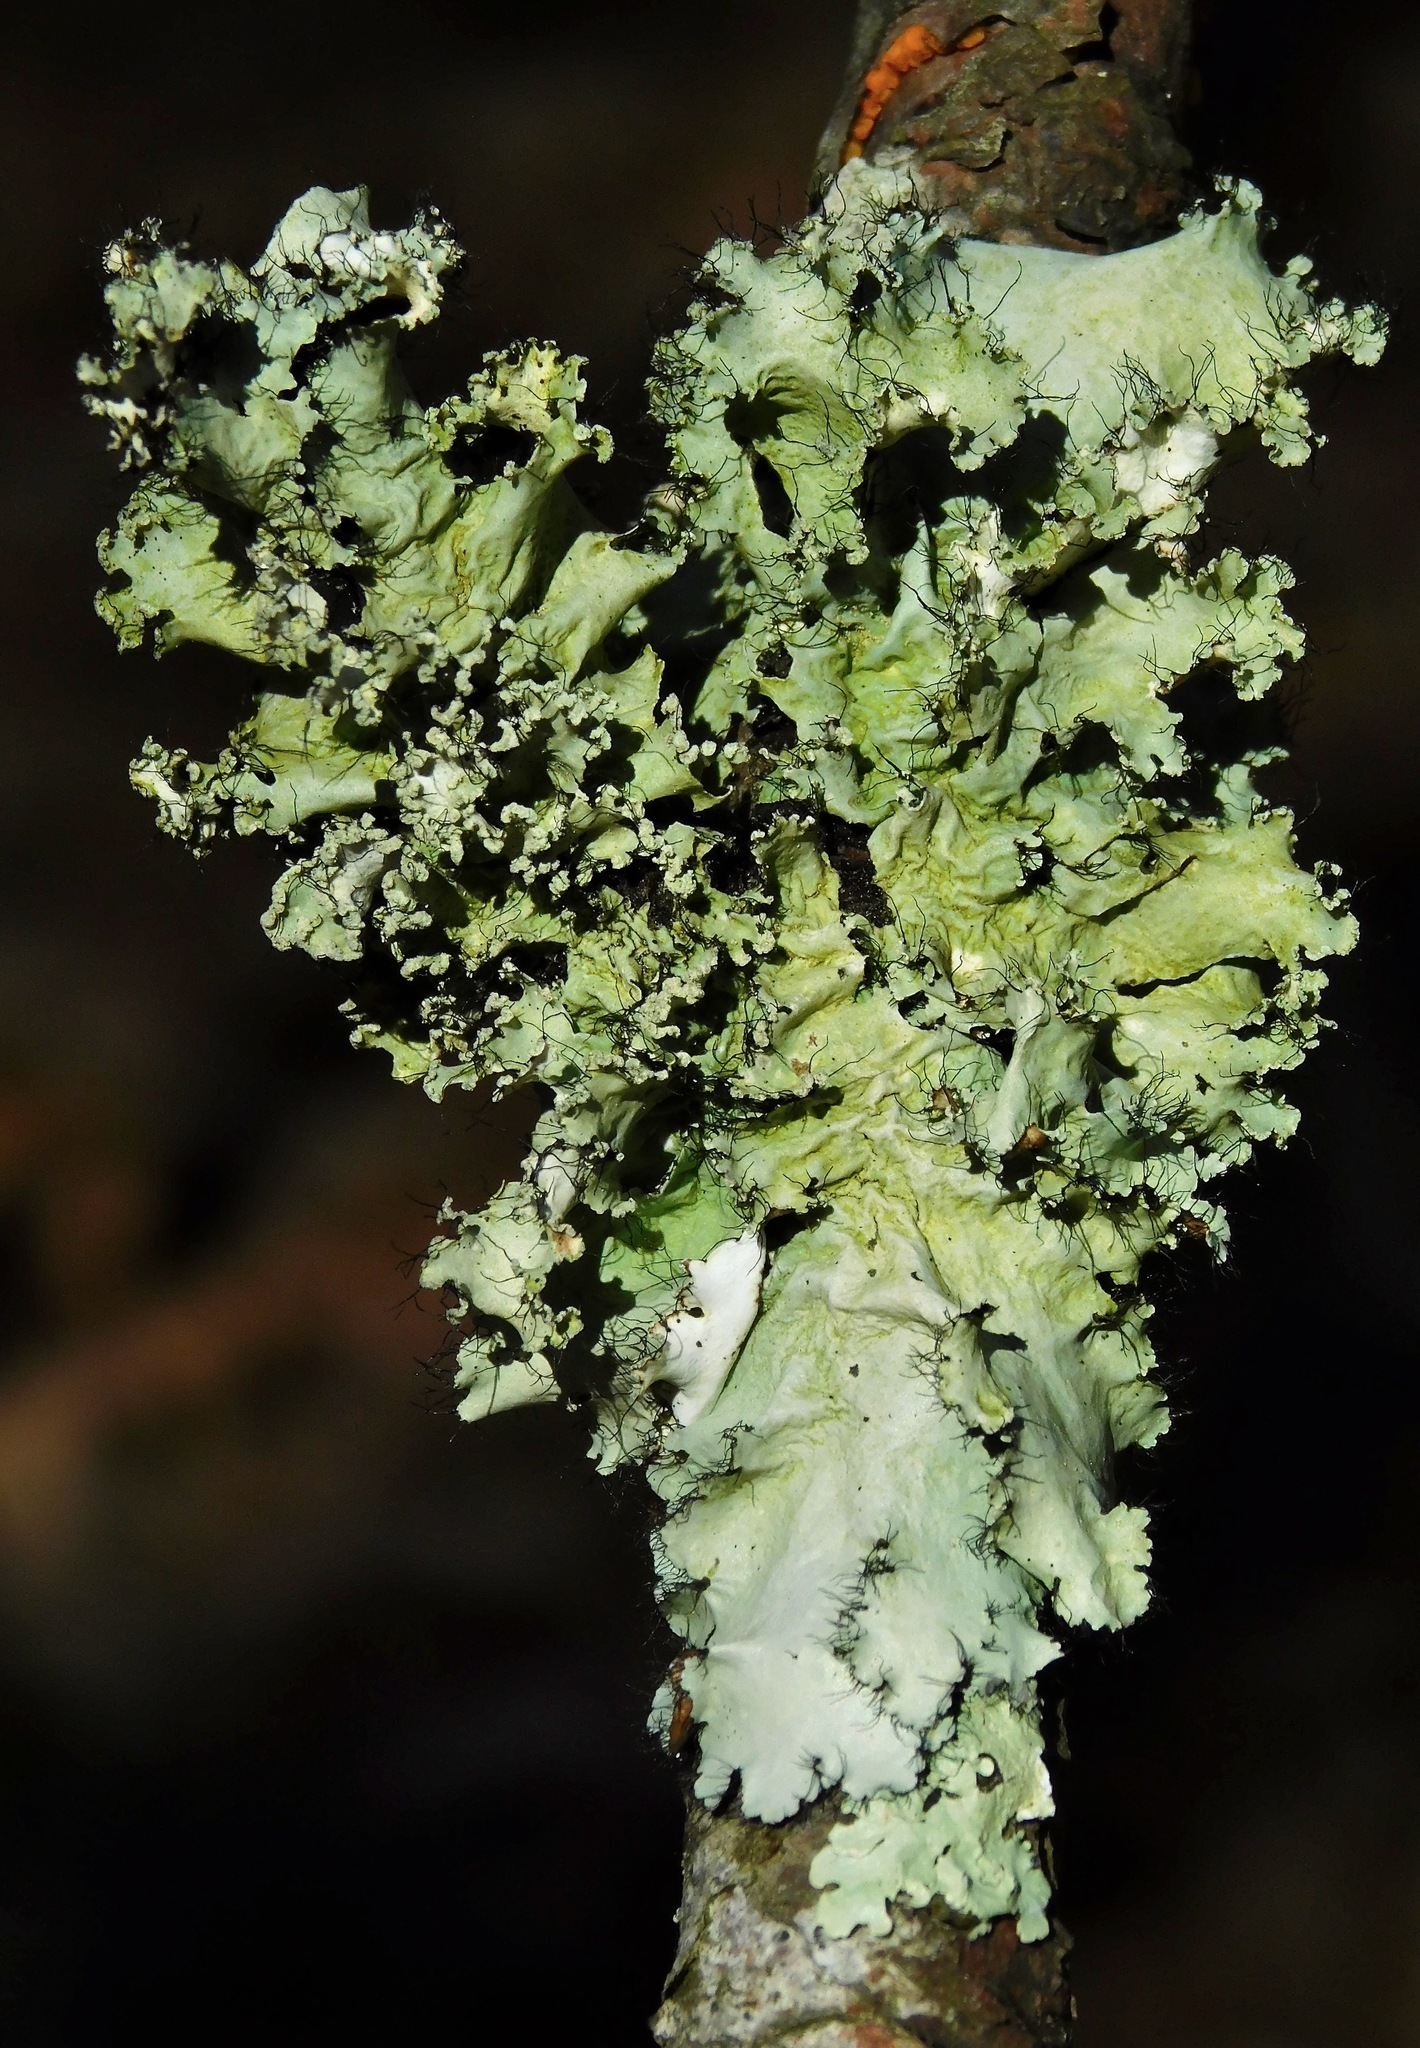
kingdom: Fungi
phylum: Ascomycota
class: Lecanoromycetes
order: Lecanorales
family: Parmeliaceae
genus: Parmotrema
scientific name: Parmotrema hypotropum
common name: Powdered ruffle lichen
